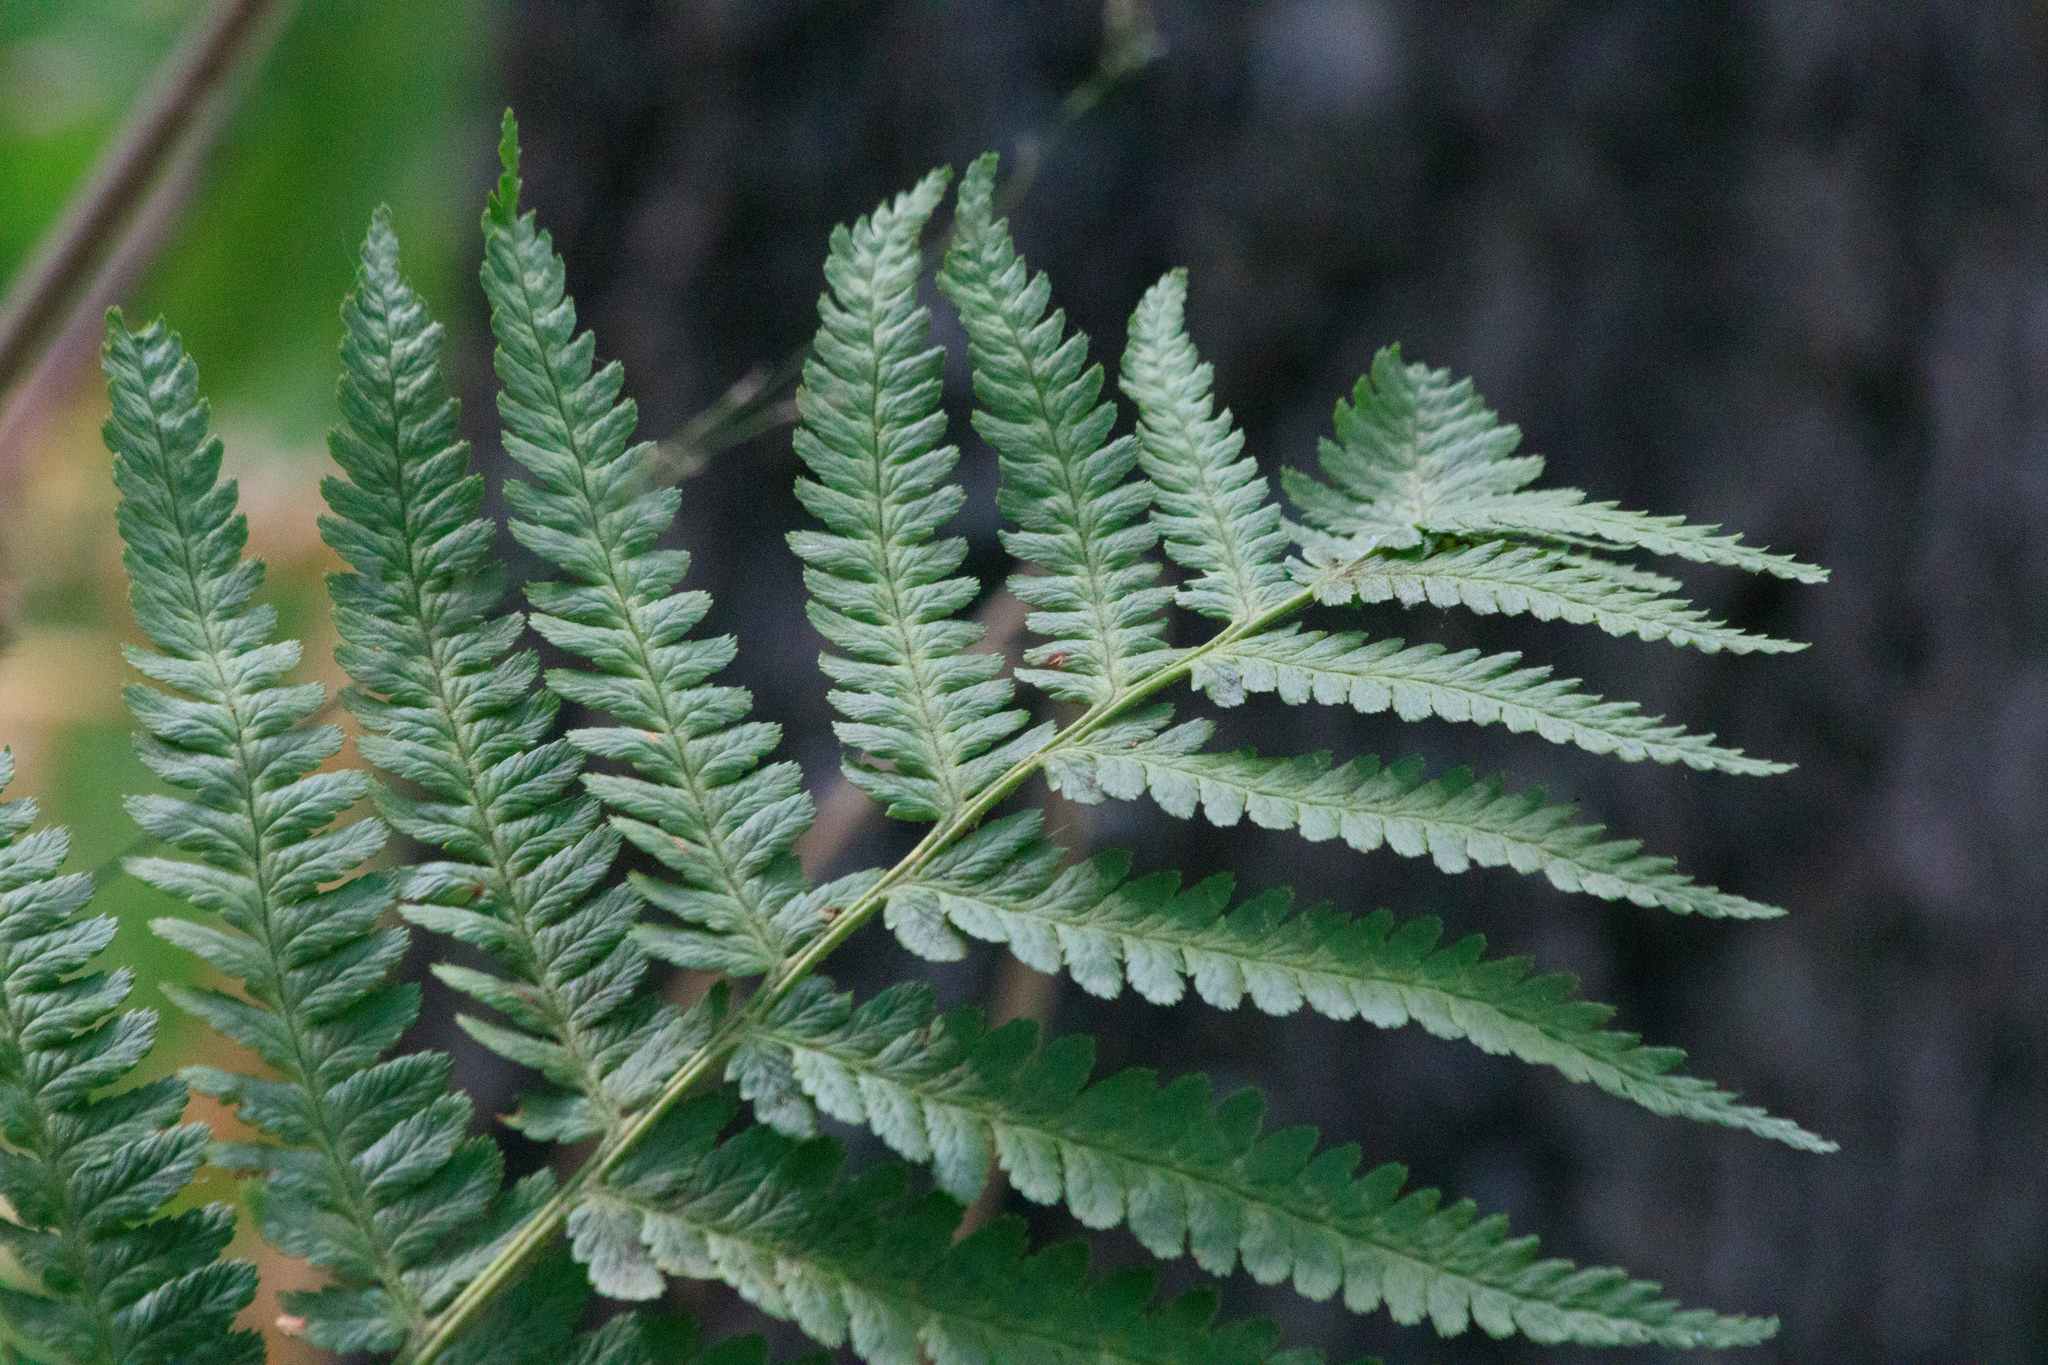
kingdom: Plantae
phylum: Tracheophyta
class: Polypodiopsida
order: Polypodiales
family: Dryopteridaceae
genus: Dryopteris
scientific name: Dryopteris filix-mas
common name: Male fern
